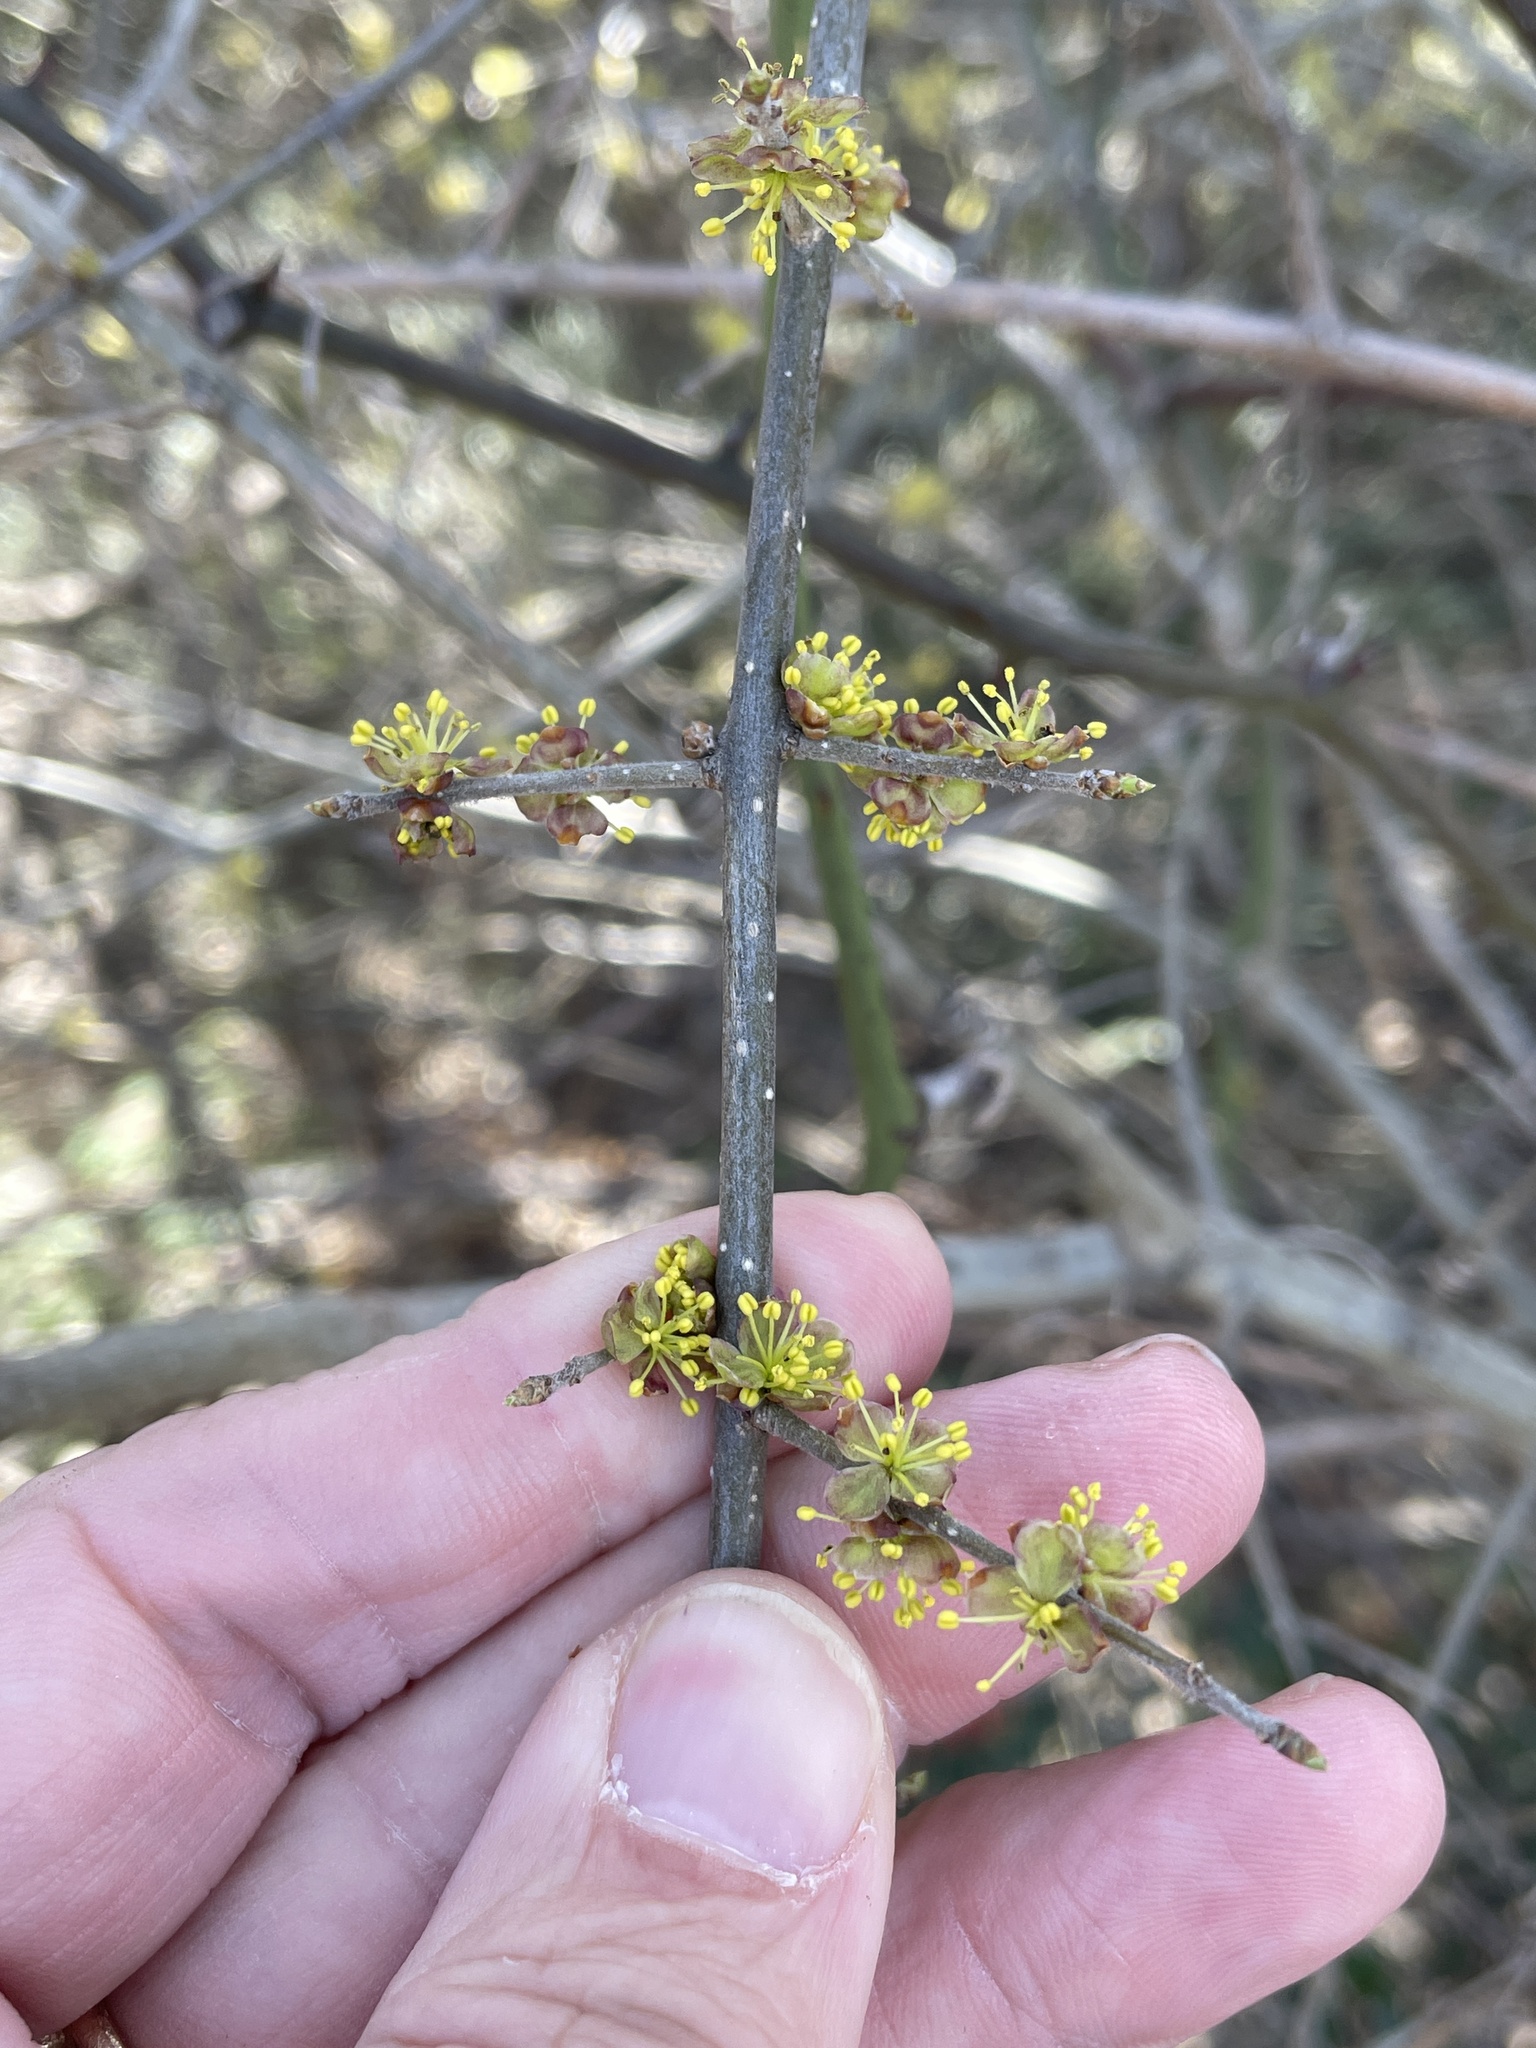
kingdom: Plantae
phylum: Tracheophyta
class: Magnoliopsida
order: Lamiales
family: Oleaceae
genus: Forestiera
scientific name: Forestiera pubescens
